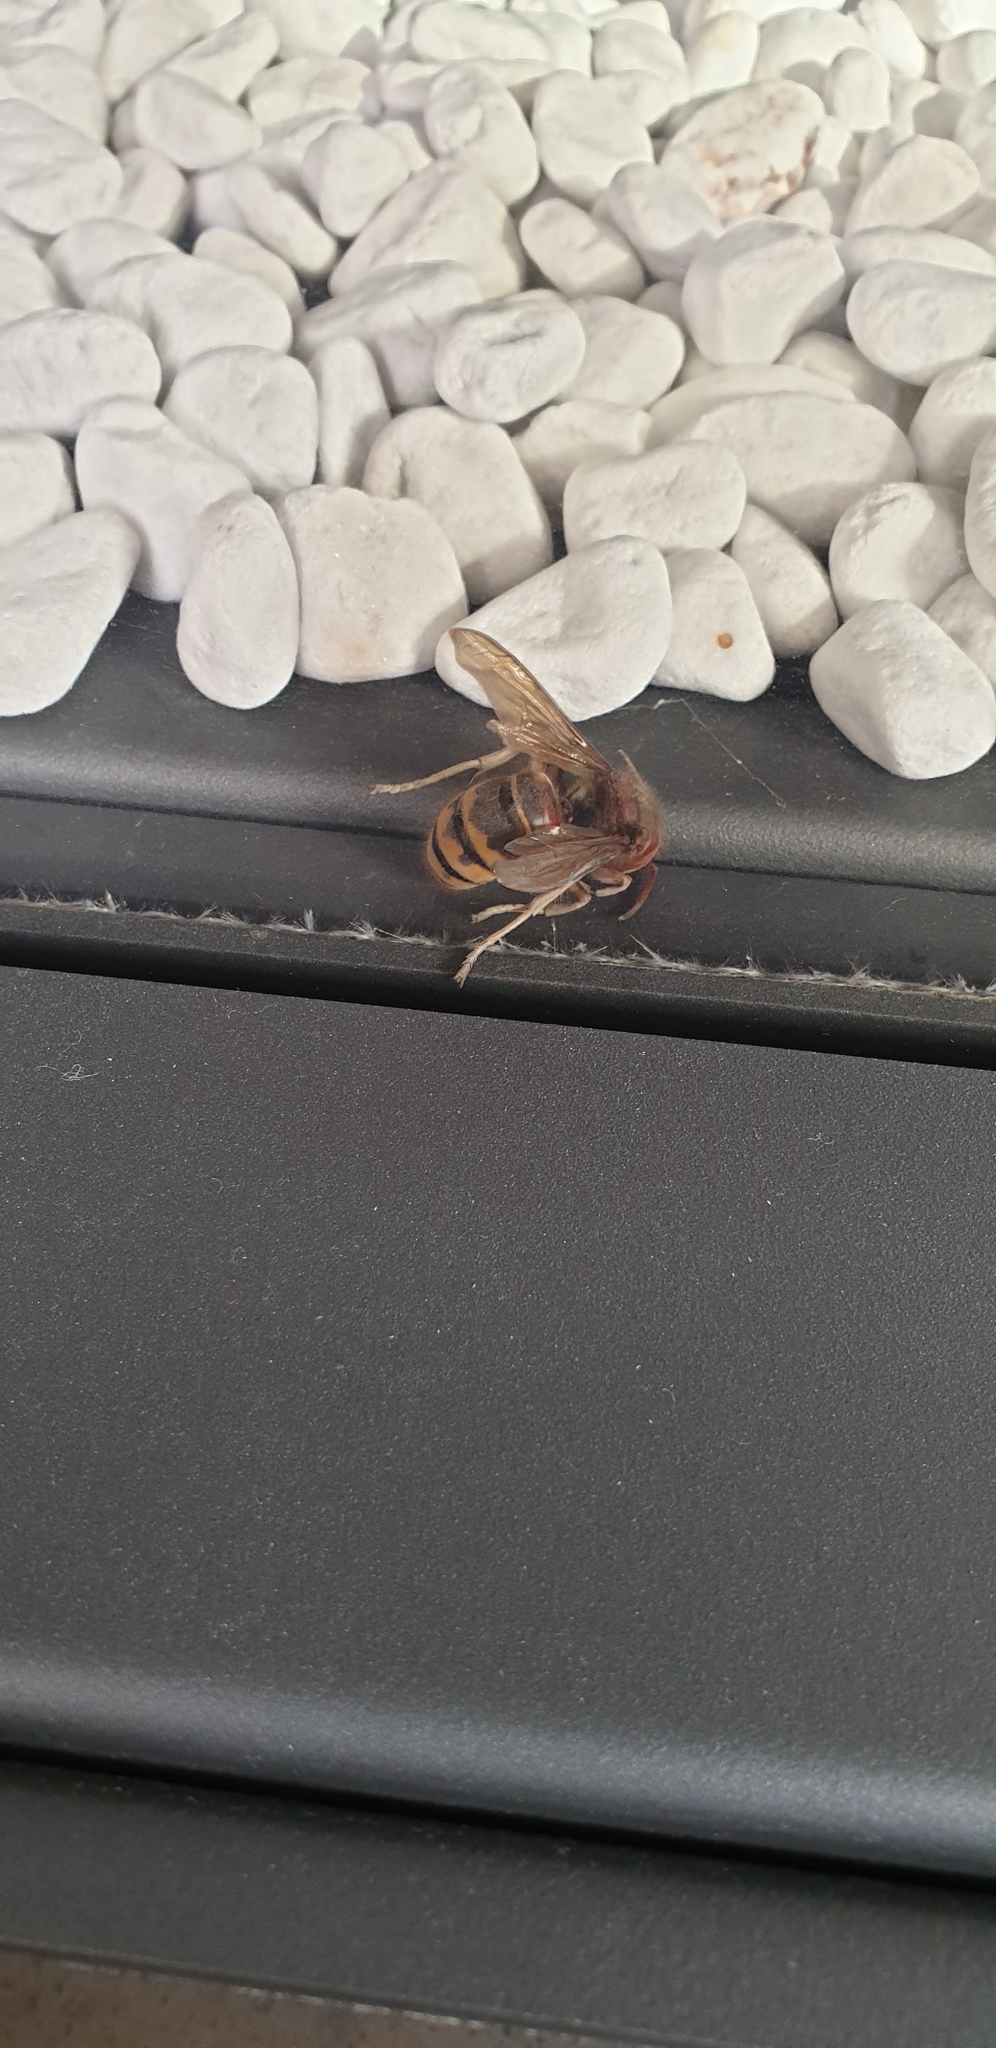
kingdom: Animalia
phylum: Arthropoda
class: Insecta
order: Hymenoptera
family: Vespidae
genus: Vespa
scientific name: Vespa crabro
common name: Hornet
